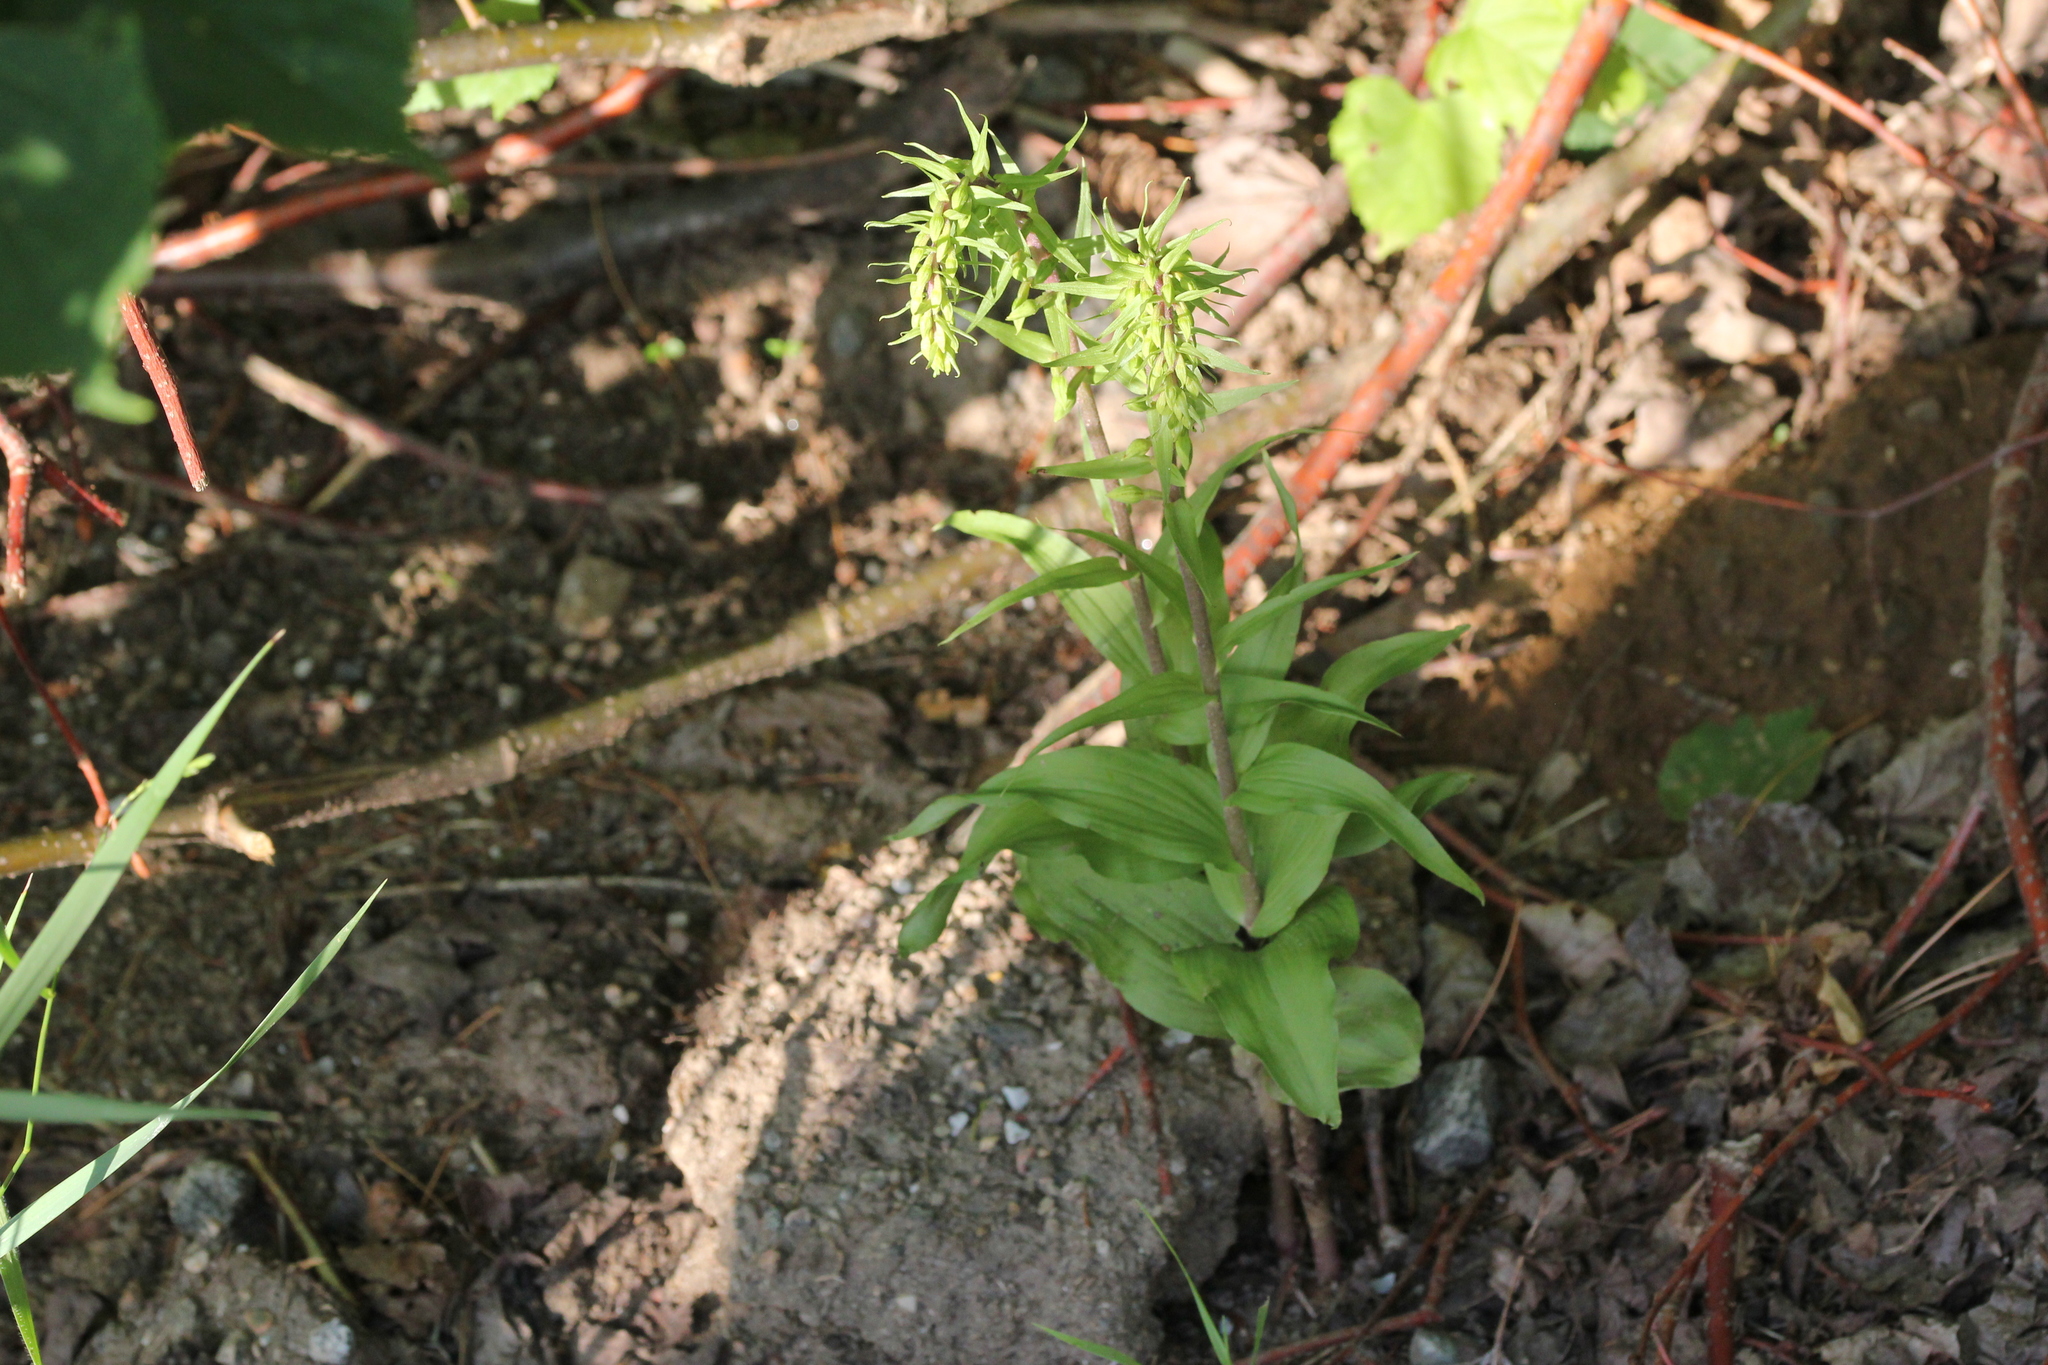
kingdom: Plantae
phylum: Tracheophyta
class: Liliopsida
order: Asparagales
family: Orchidaceae
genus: Epipactis
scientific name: Epipactis helleborine
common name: Broad-leaved helleborine
